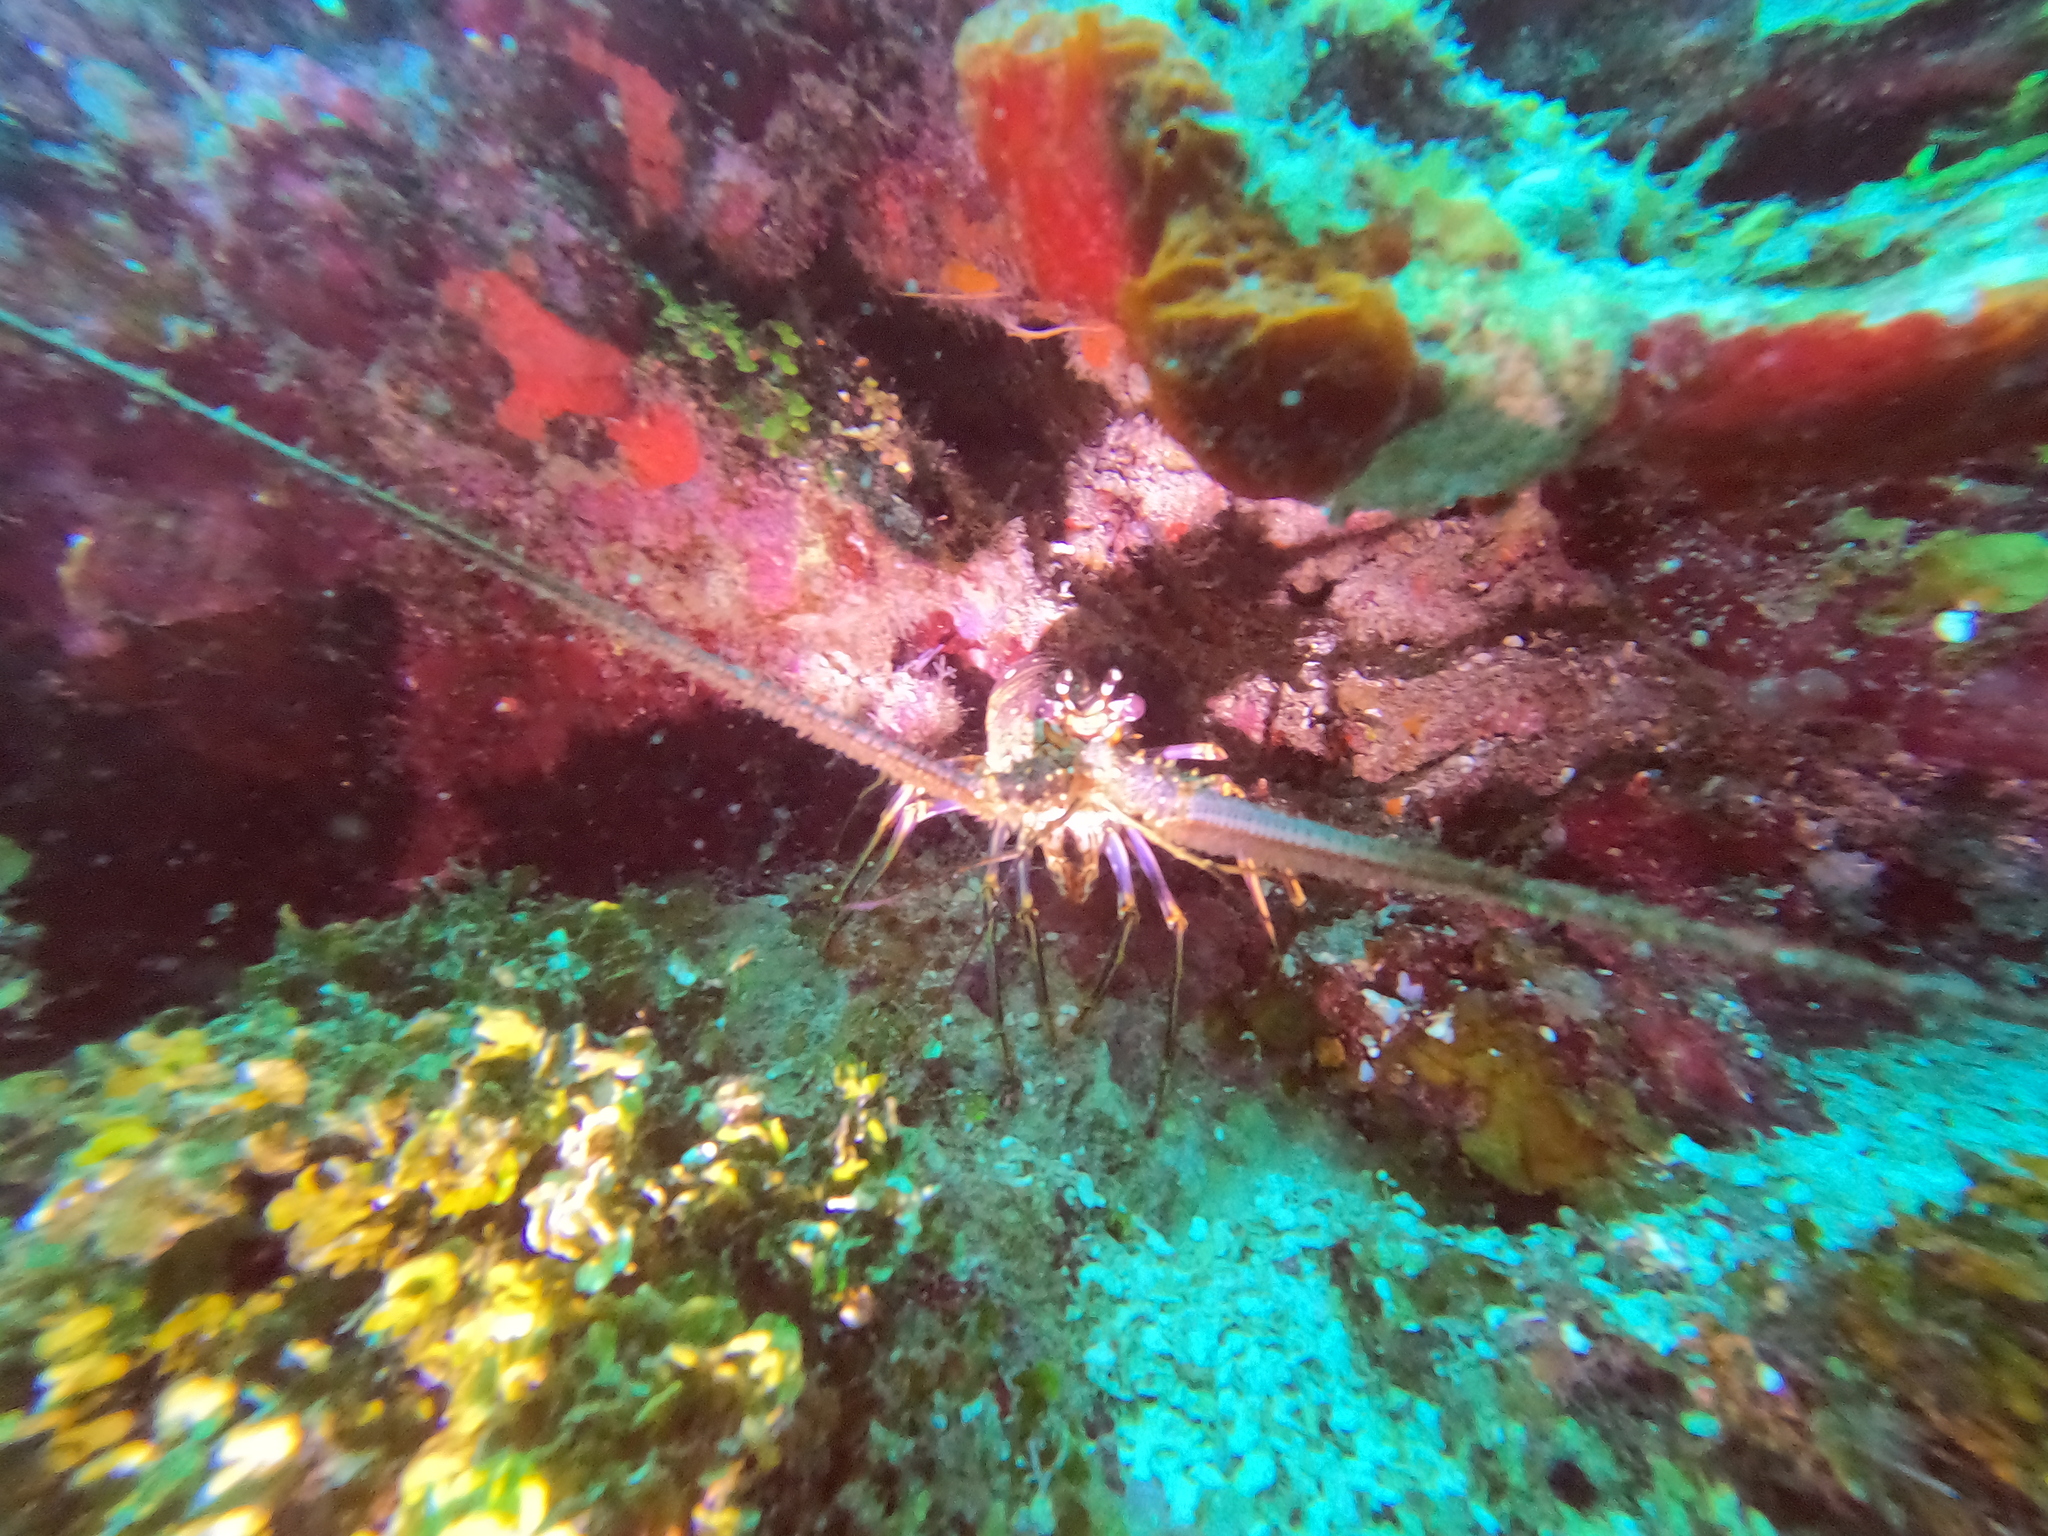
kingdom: Animalia
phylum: Arthropoda
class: Malacostraca
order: Decapoda
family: Palinuridae
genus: Panulirus
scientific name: Panulirus argus
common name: Caribbean spiny lobster
